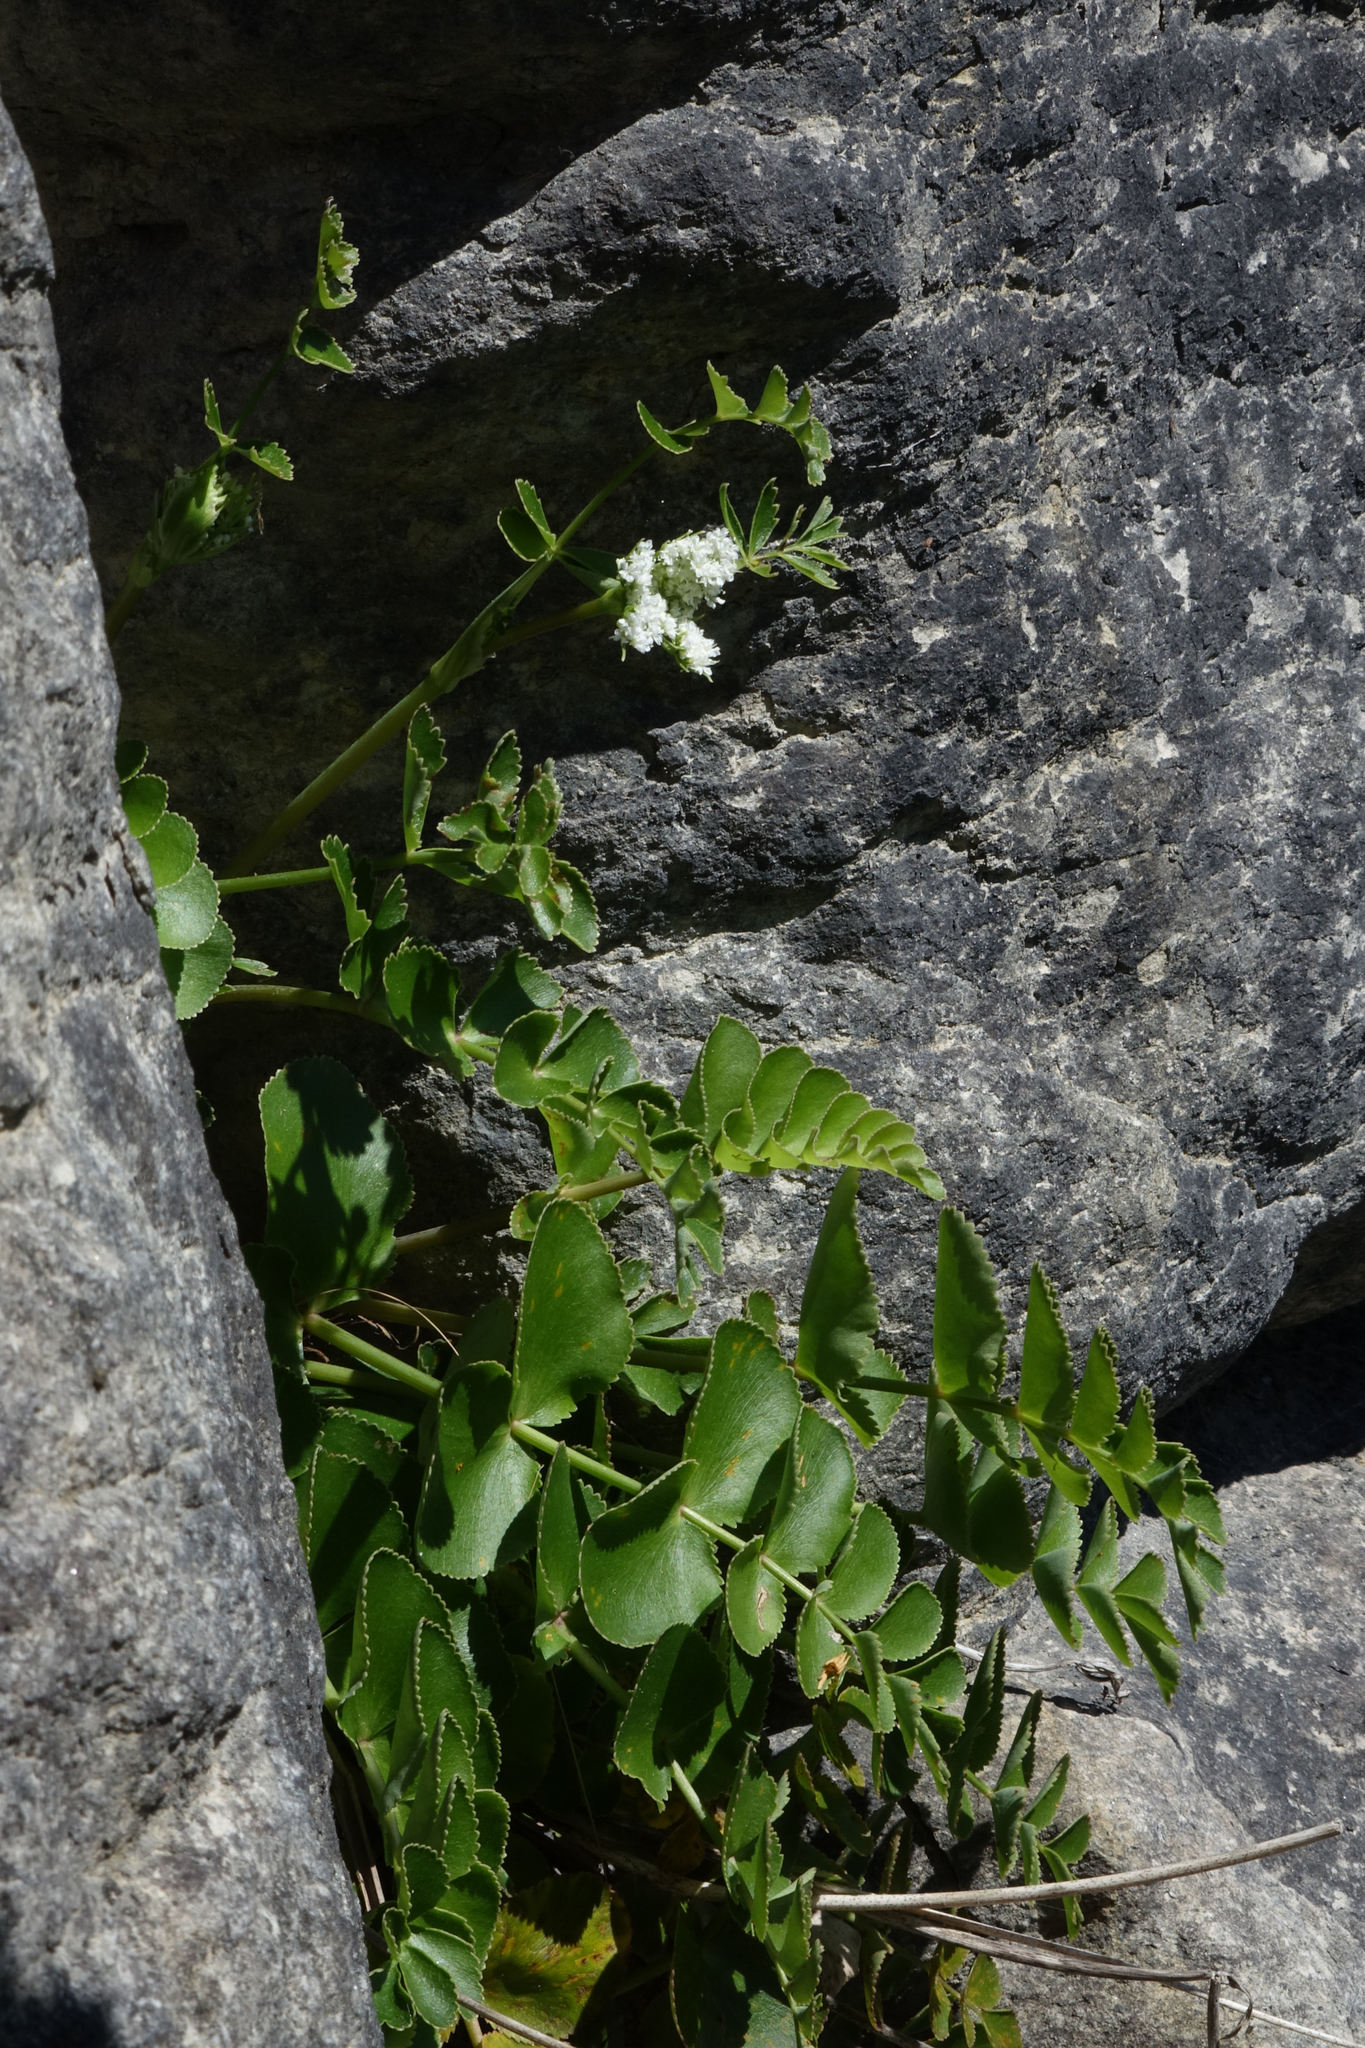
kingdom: Plantae
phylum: Tracheophyta
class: Magnoliopsida
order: Apiales
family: Apiaceae
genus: Gingidia
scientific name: Gingidia montana
